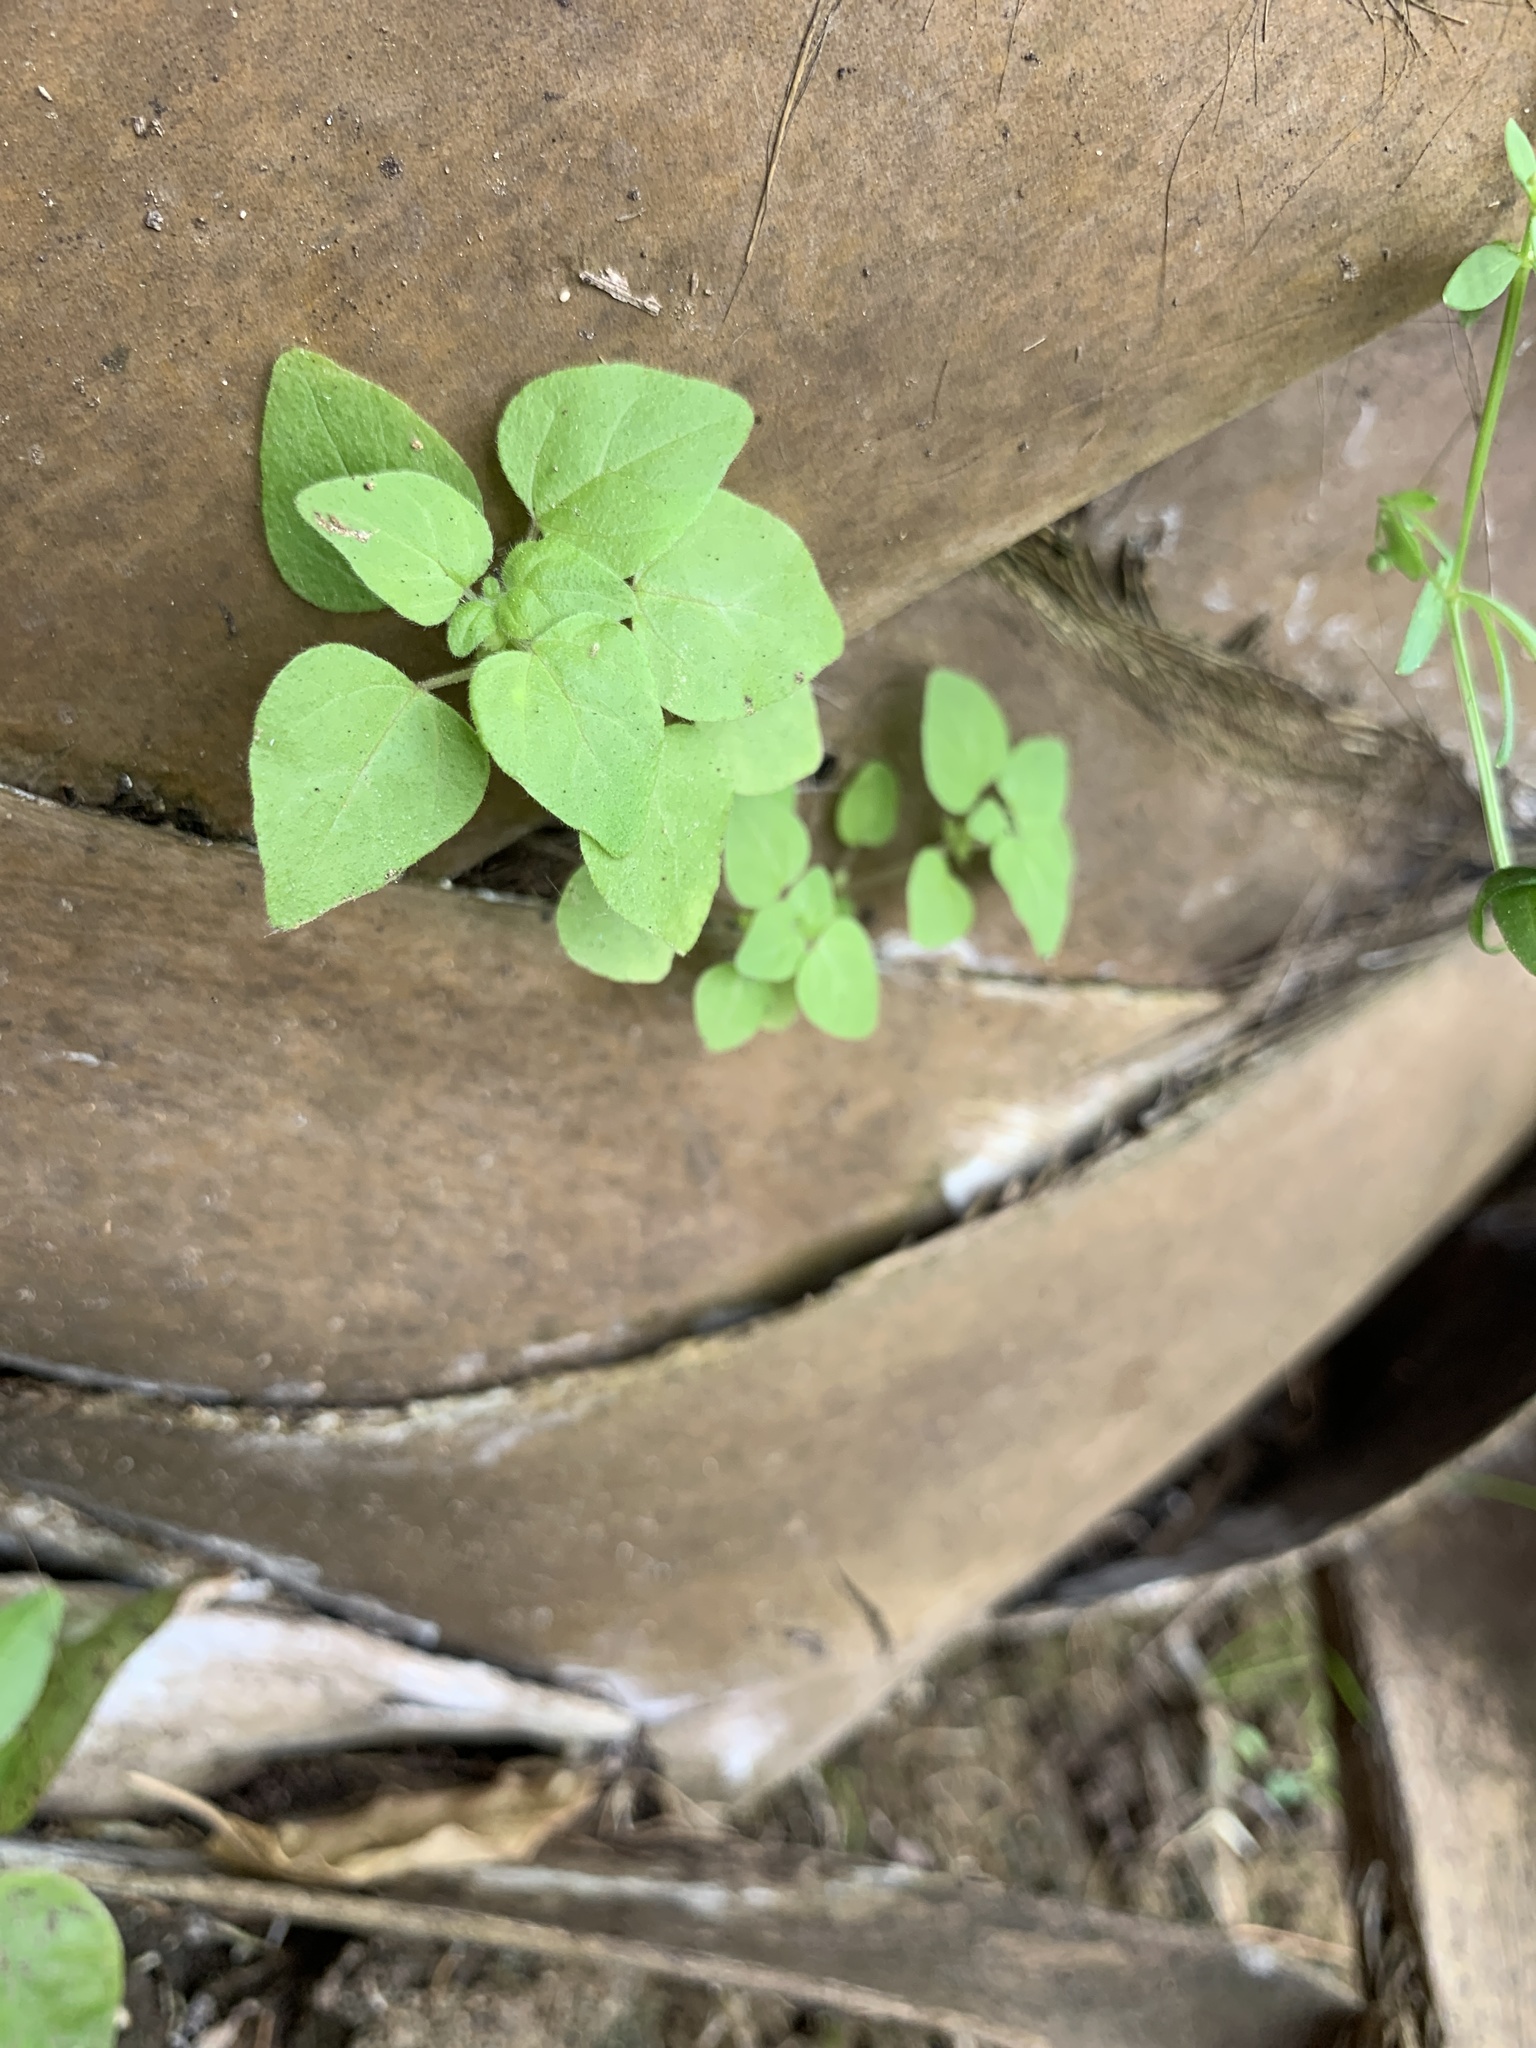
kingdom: Plantae
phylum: Tracheophyta
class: Magnoliopsida
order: Rosales
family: Urticaceae
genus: Parietaria
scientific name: Parietaria floridana
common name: Florida pellitory
